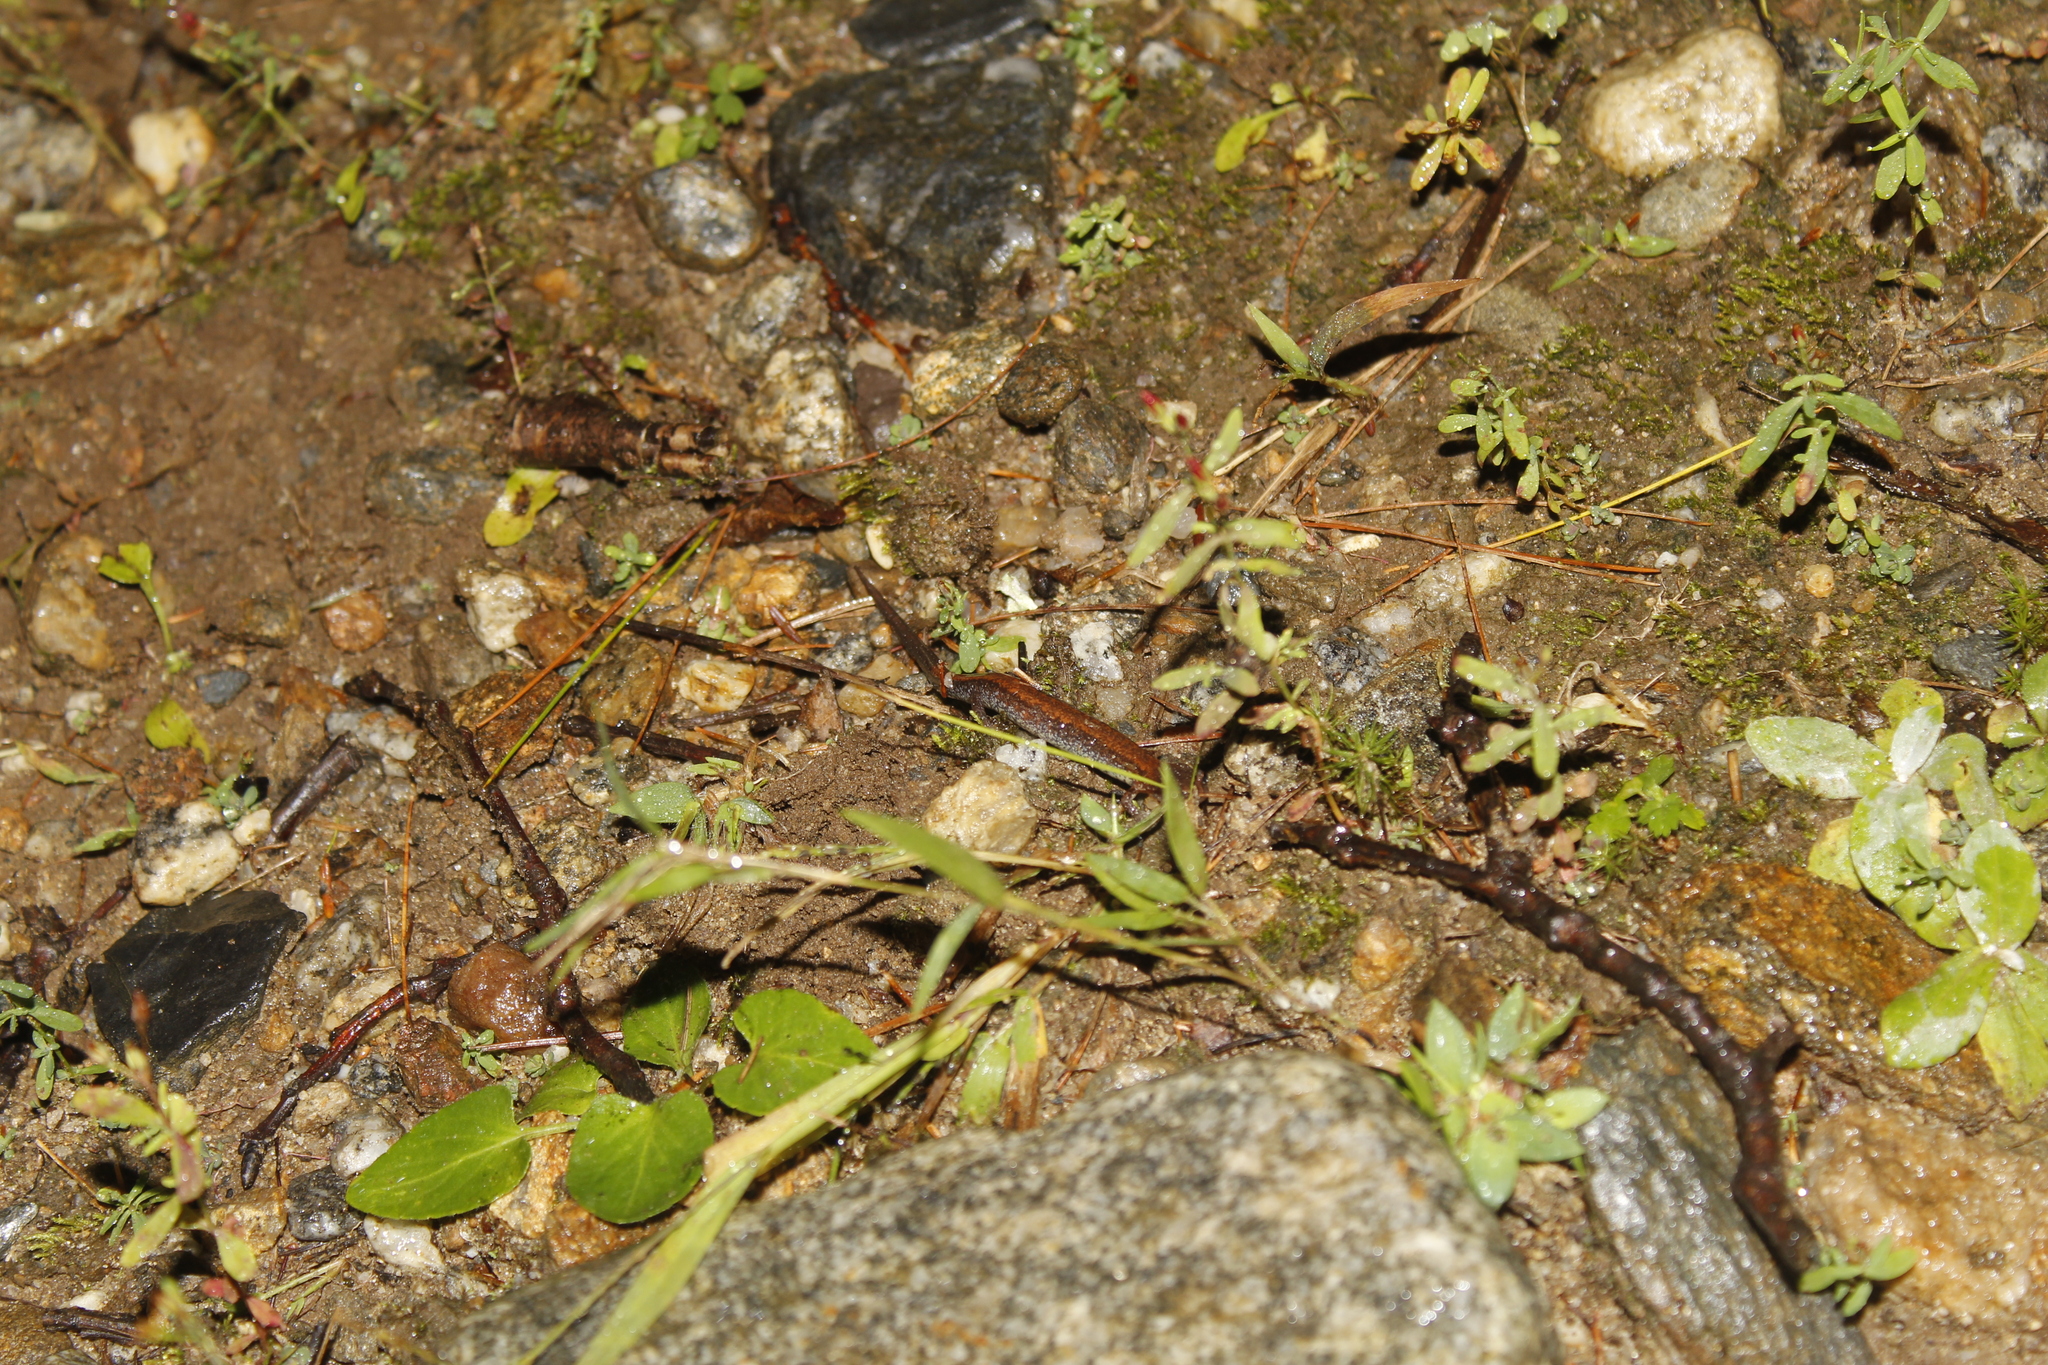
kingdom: Animalia
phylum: Chordata
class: Amphibia
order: Caudata
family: Plethodontidae
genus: Plethodon
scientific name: Plethodon cinereus
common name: Redback salamander
